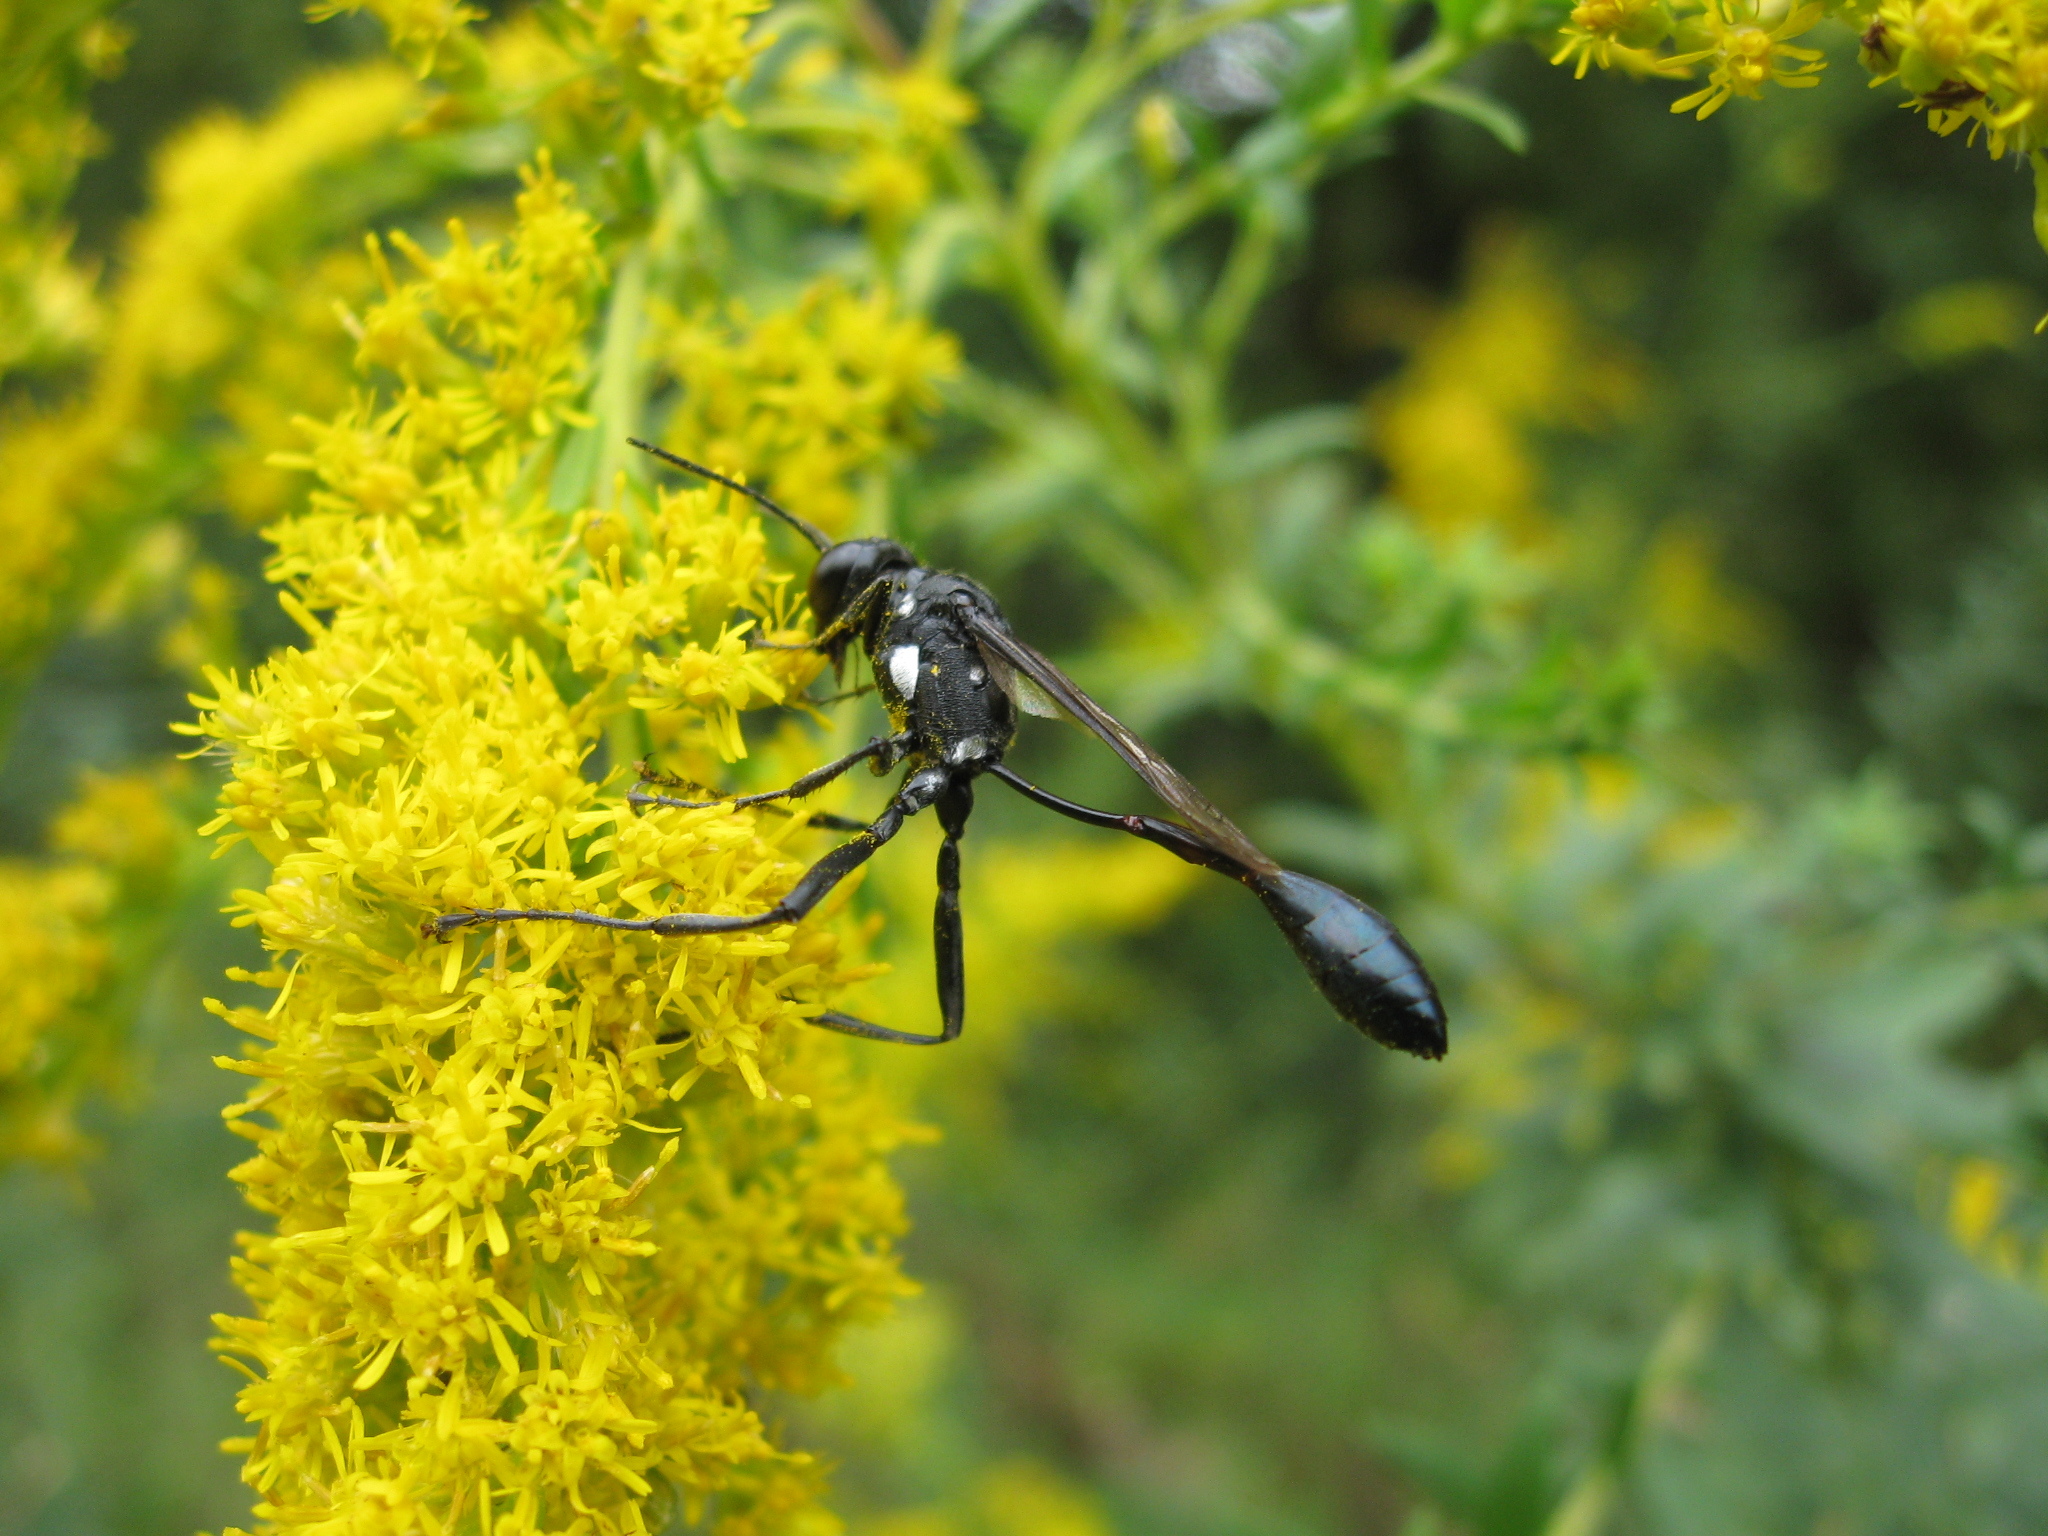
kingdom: Animalia
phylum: Arthropoda
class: Insecta
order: Hymenoptera
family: Sphecidae
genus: Eremnophila
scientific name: Eremnophila aureonotata
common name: Gold-marked thread-waisted wasp
